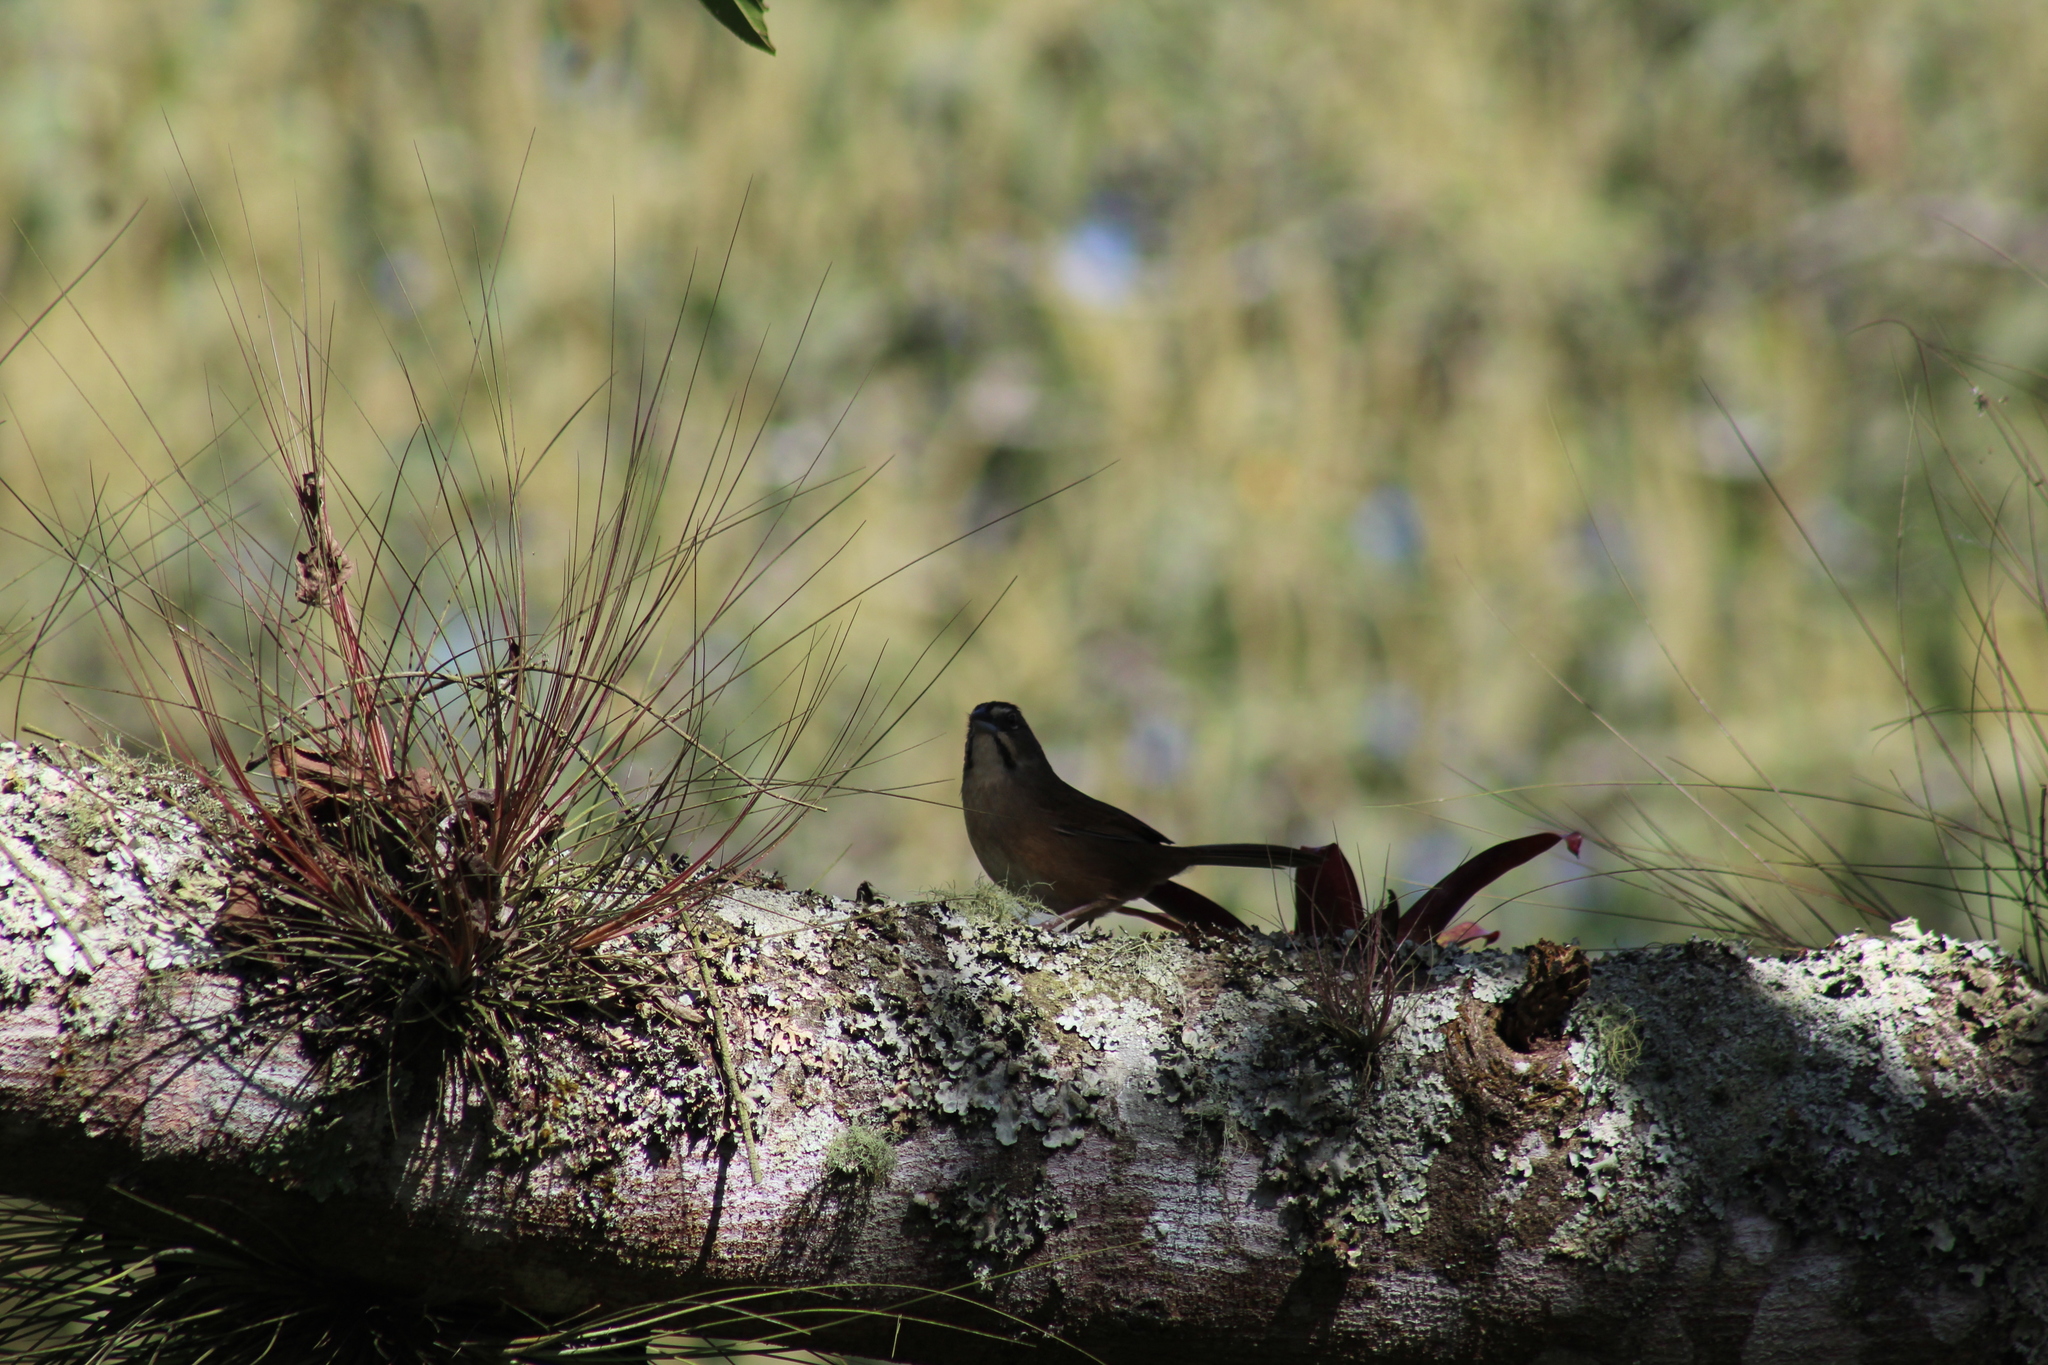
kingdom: Animalia
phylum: Chordata
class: Aves
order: Passeriformes
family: Passerellidae
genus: Aimophila
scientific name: Aimophila rufescens
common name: Rusty sparrow
